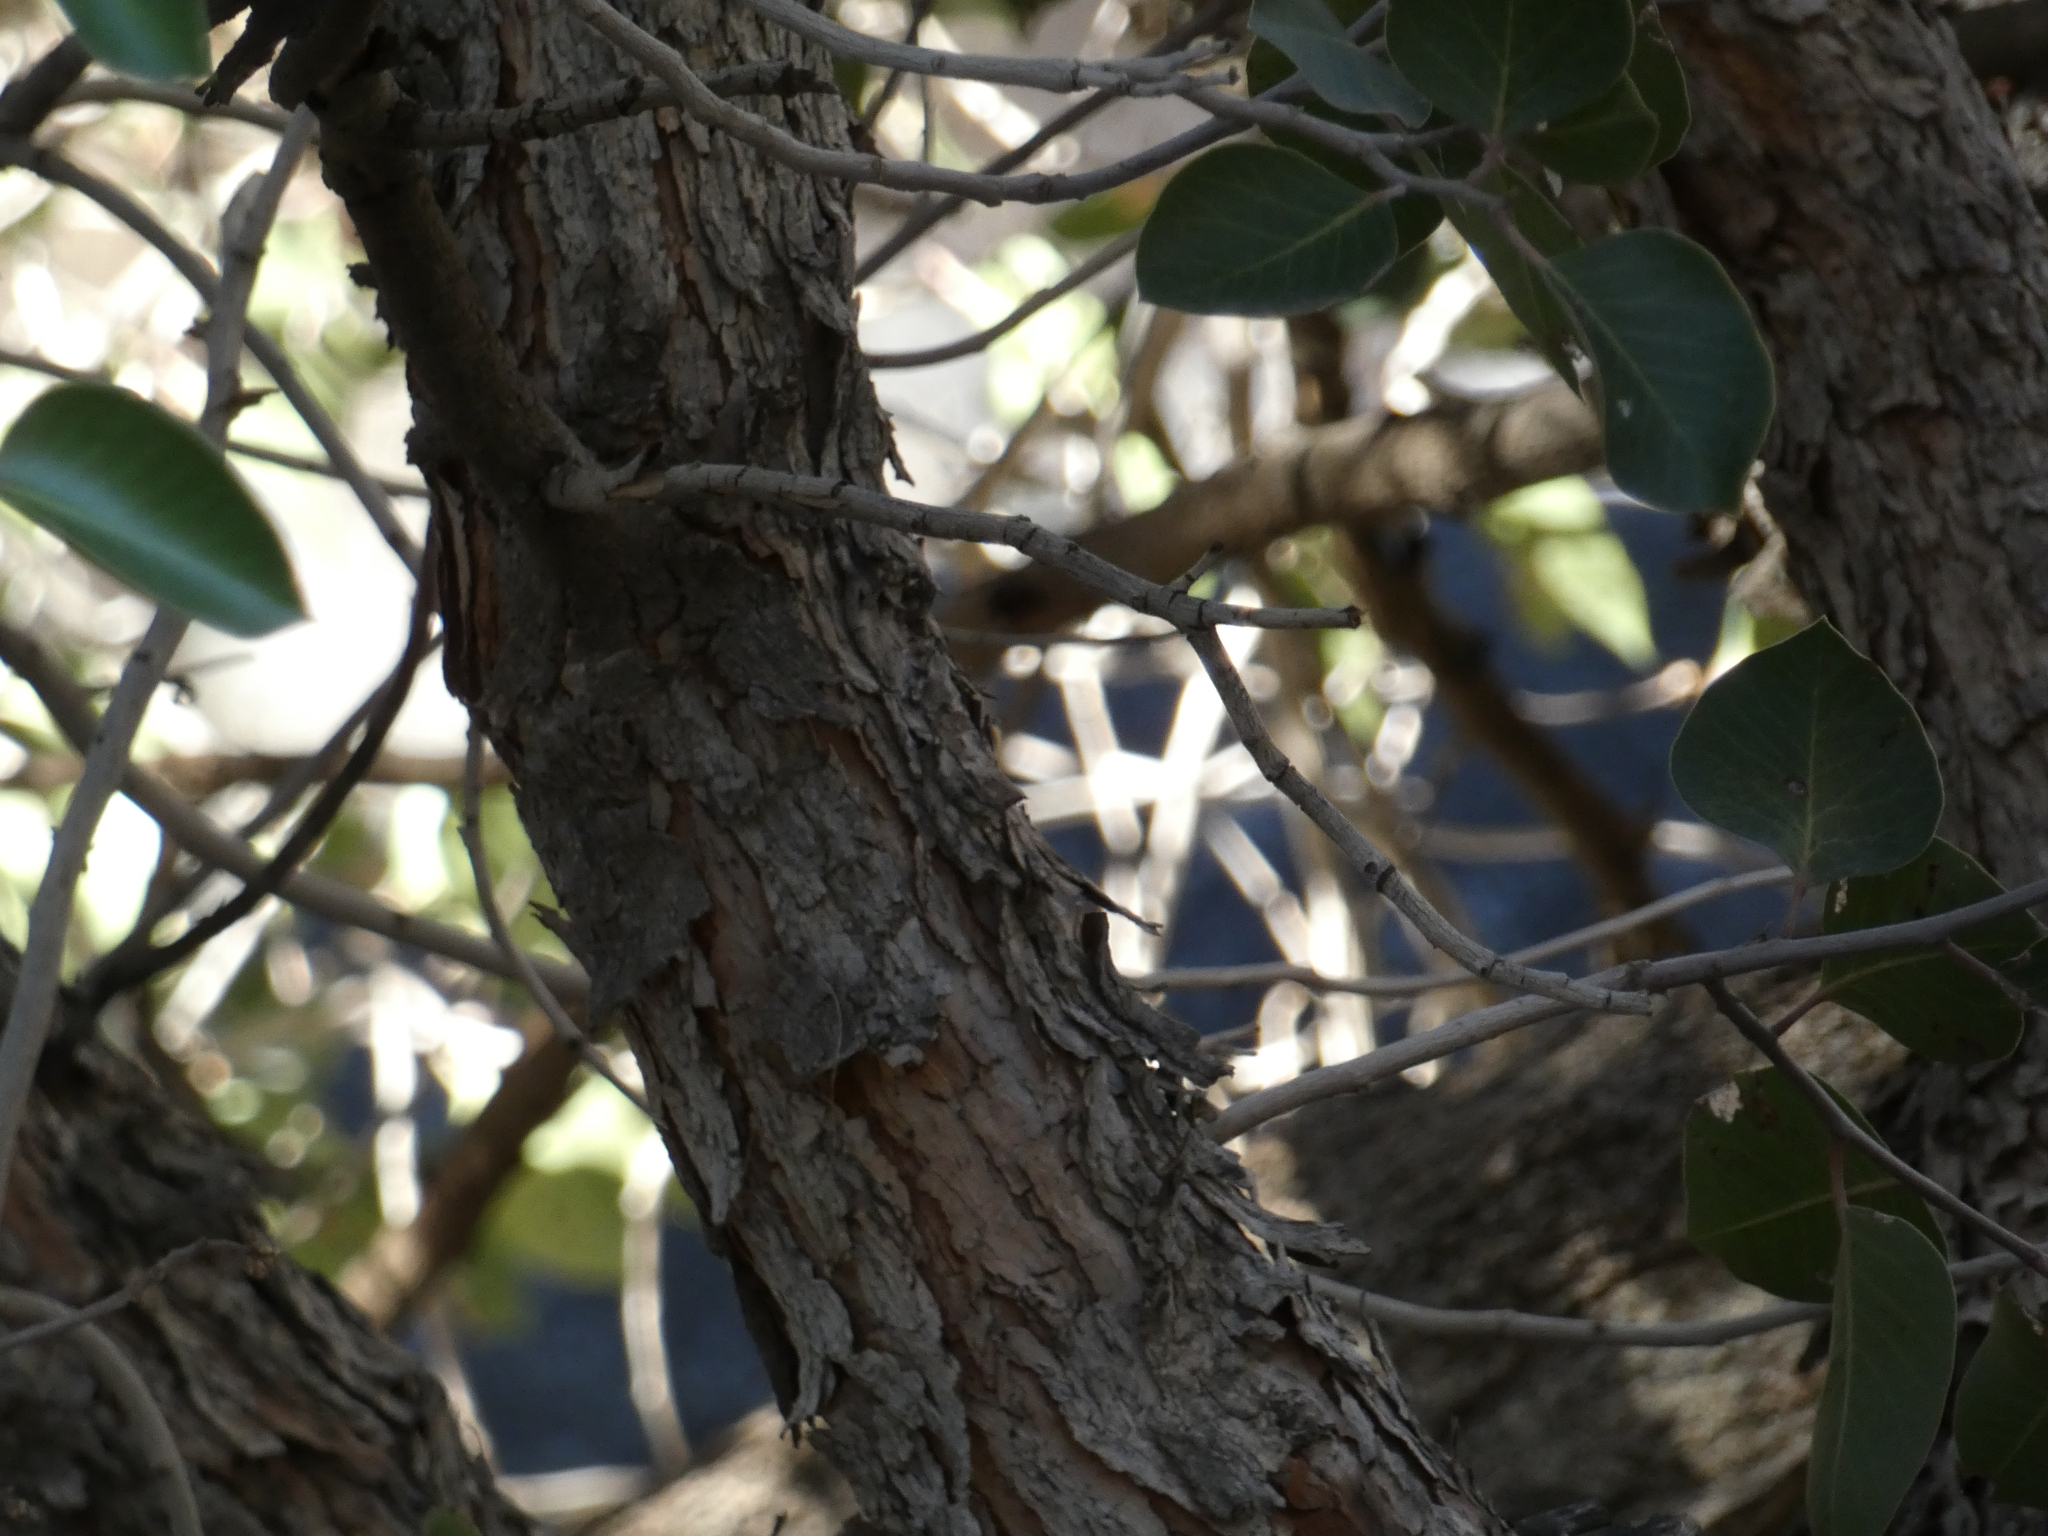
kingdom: Plantae
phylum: Tracheophyta
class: Magnoliopsida
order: Sapindales
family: Anacardiaceae
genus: Rhus
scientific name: Rhus ovata
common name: Sugar sumac
